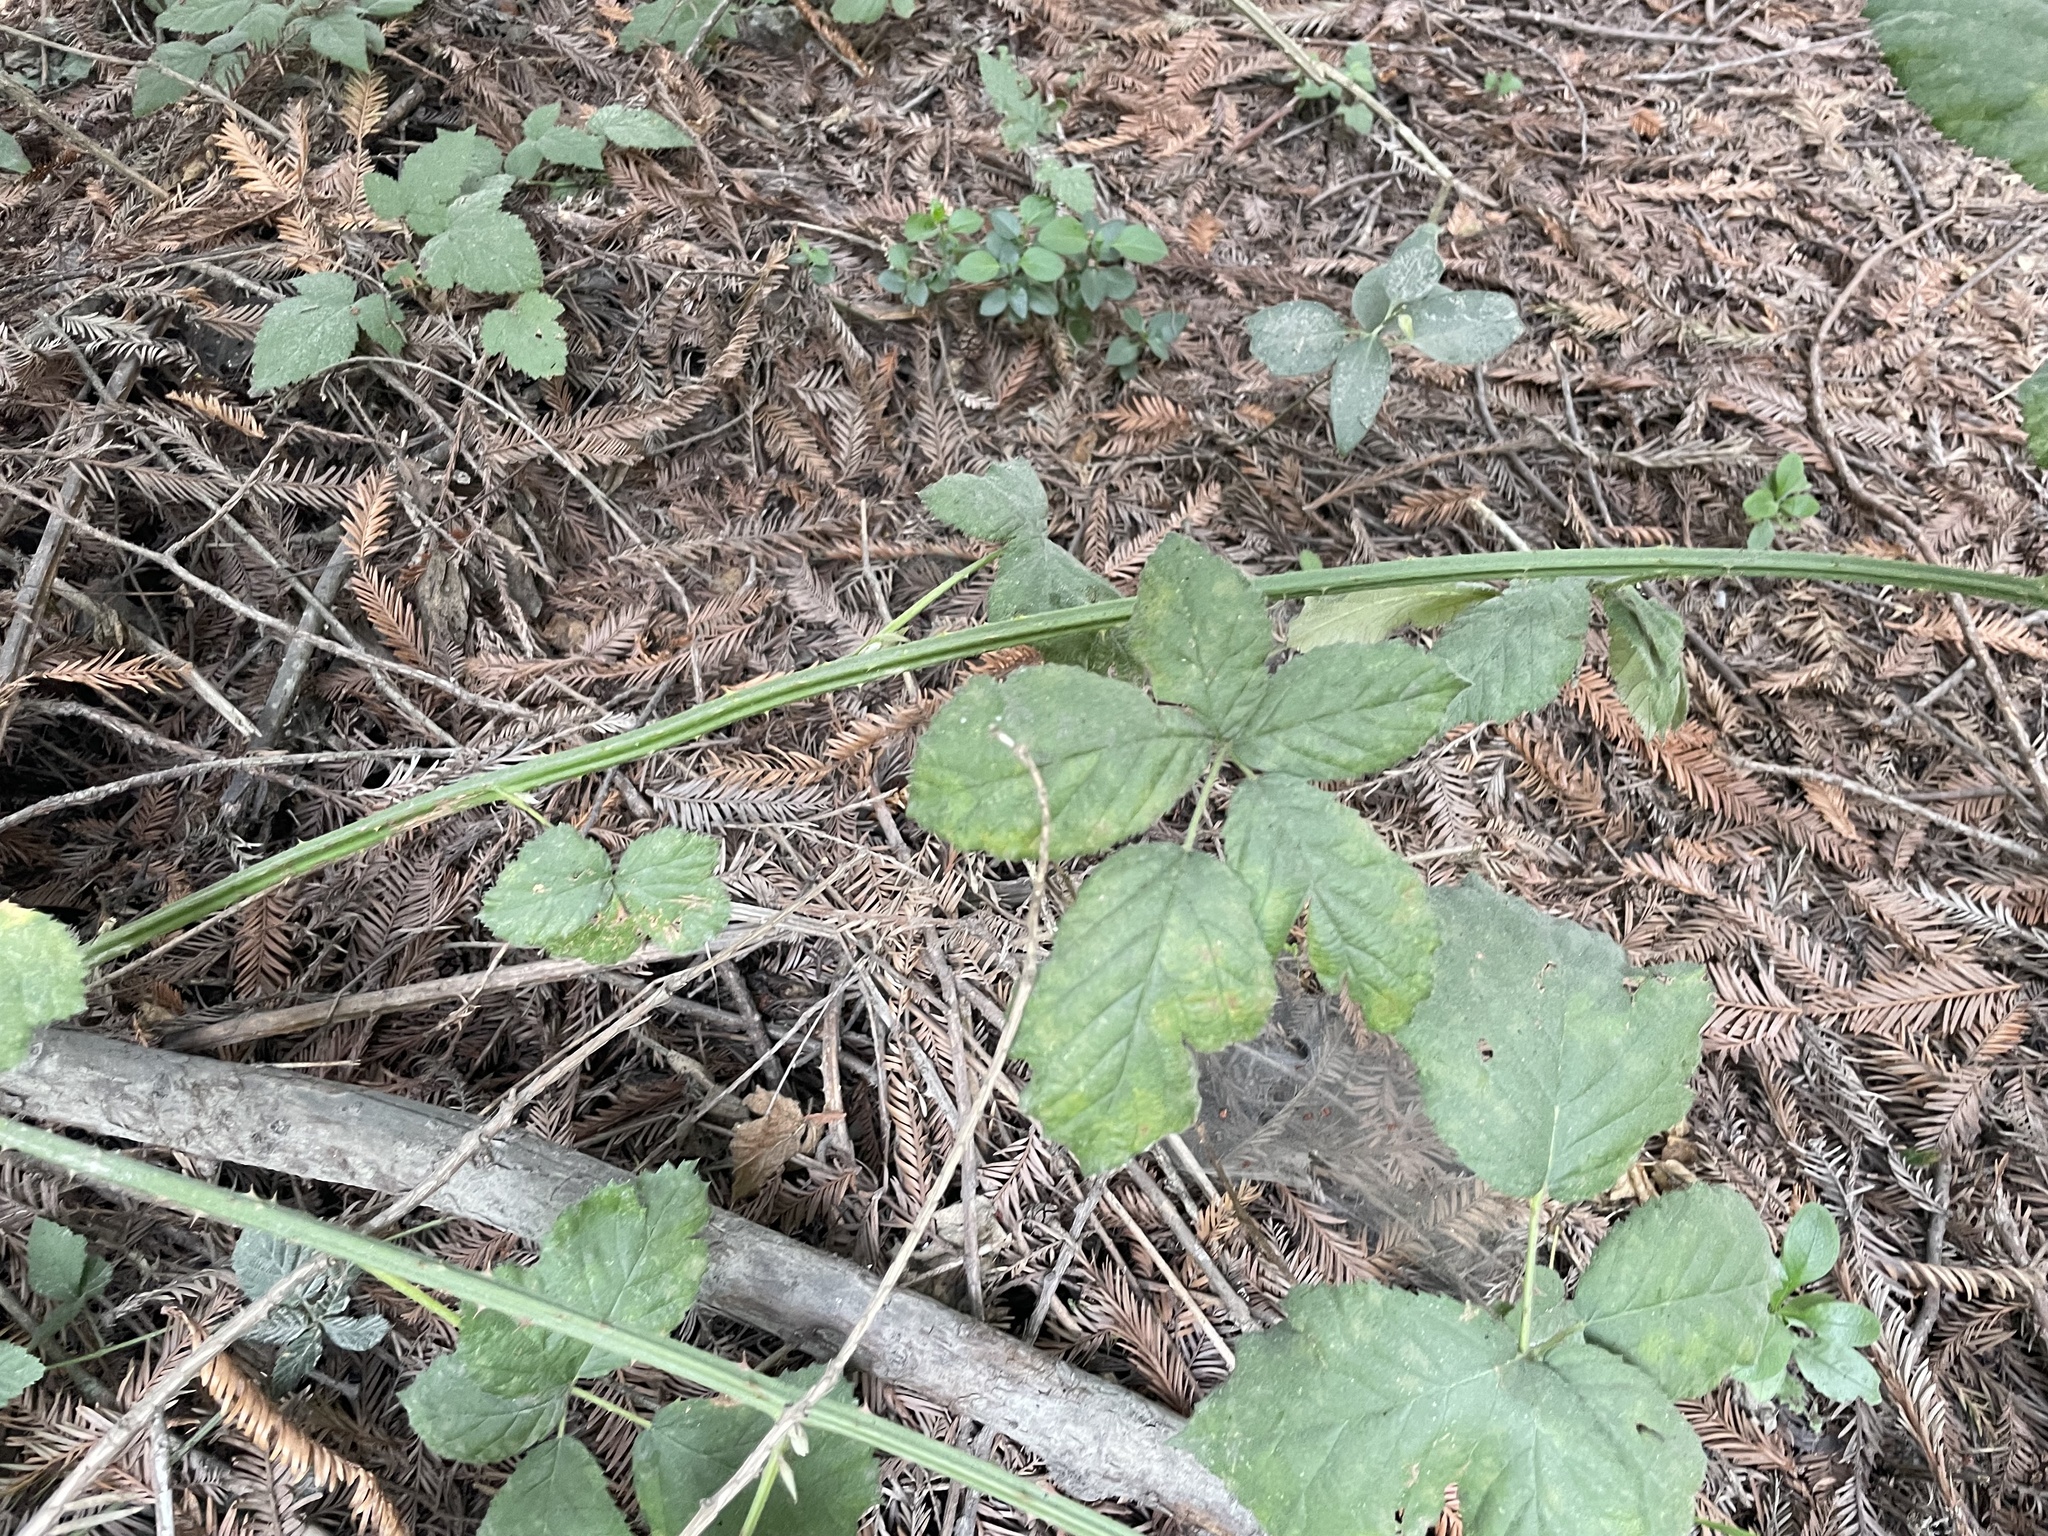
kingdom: Plantae
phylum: Tracheophyta
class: Magnoliopsida
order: Rosales
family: Rosaceae
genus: Rubus
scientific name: Rubus armeniacus
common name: Himalayan blackberry
